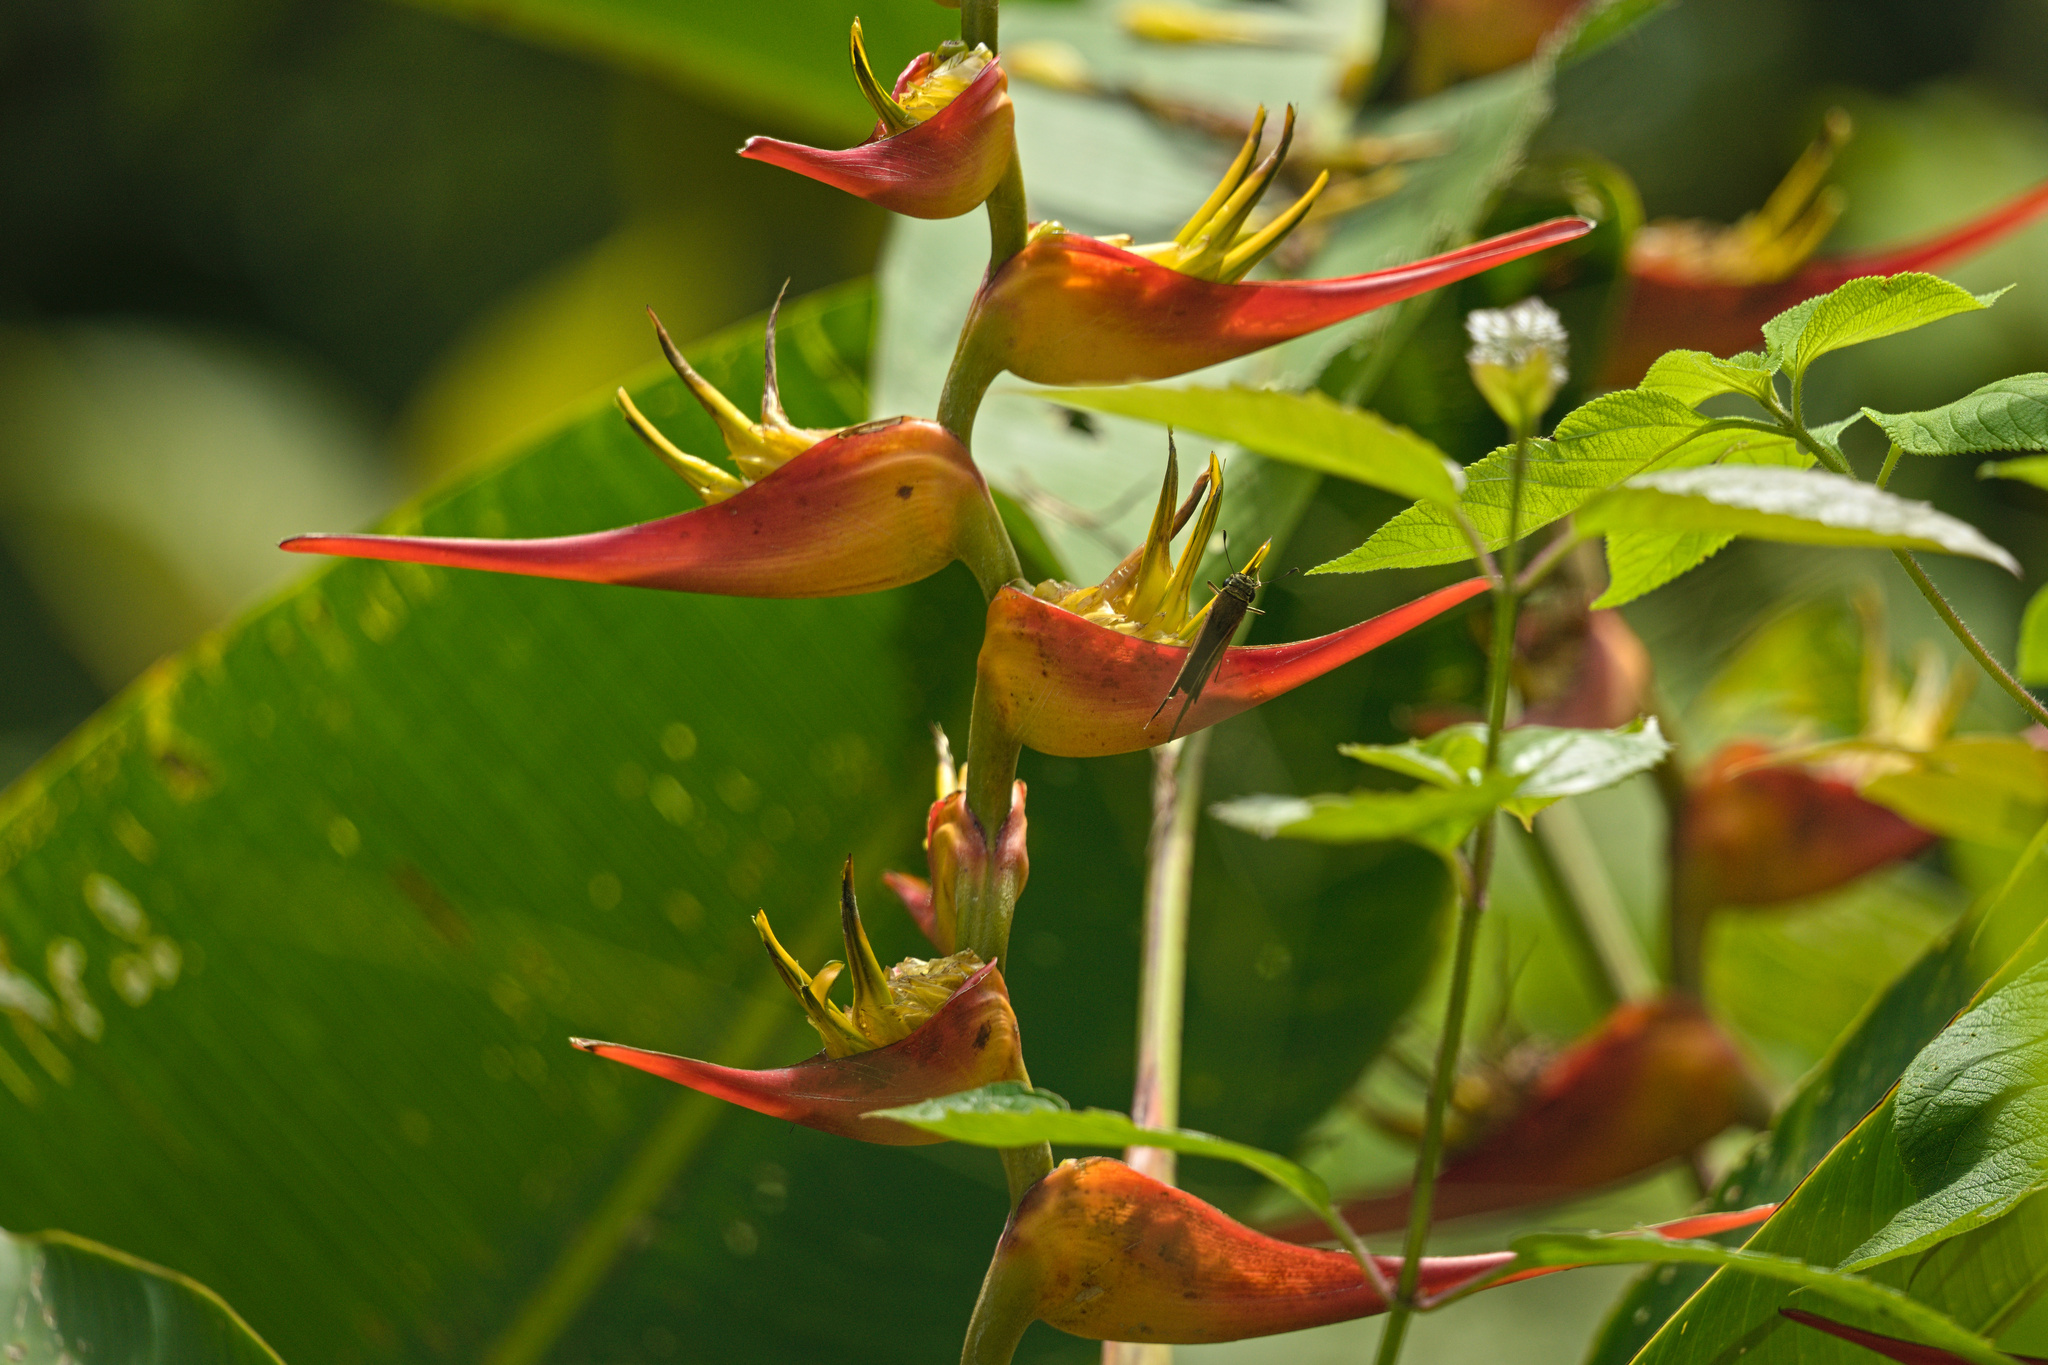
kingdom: Plantae
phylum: Tracheophyta
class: Liliopsida
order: Zingiberales
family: Heliconiaceae
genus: Heliconia
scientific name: Heliconia latispatha
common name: Expanded lobsterclaw
